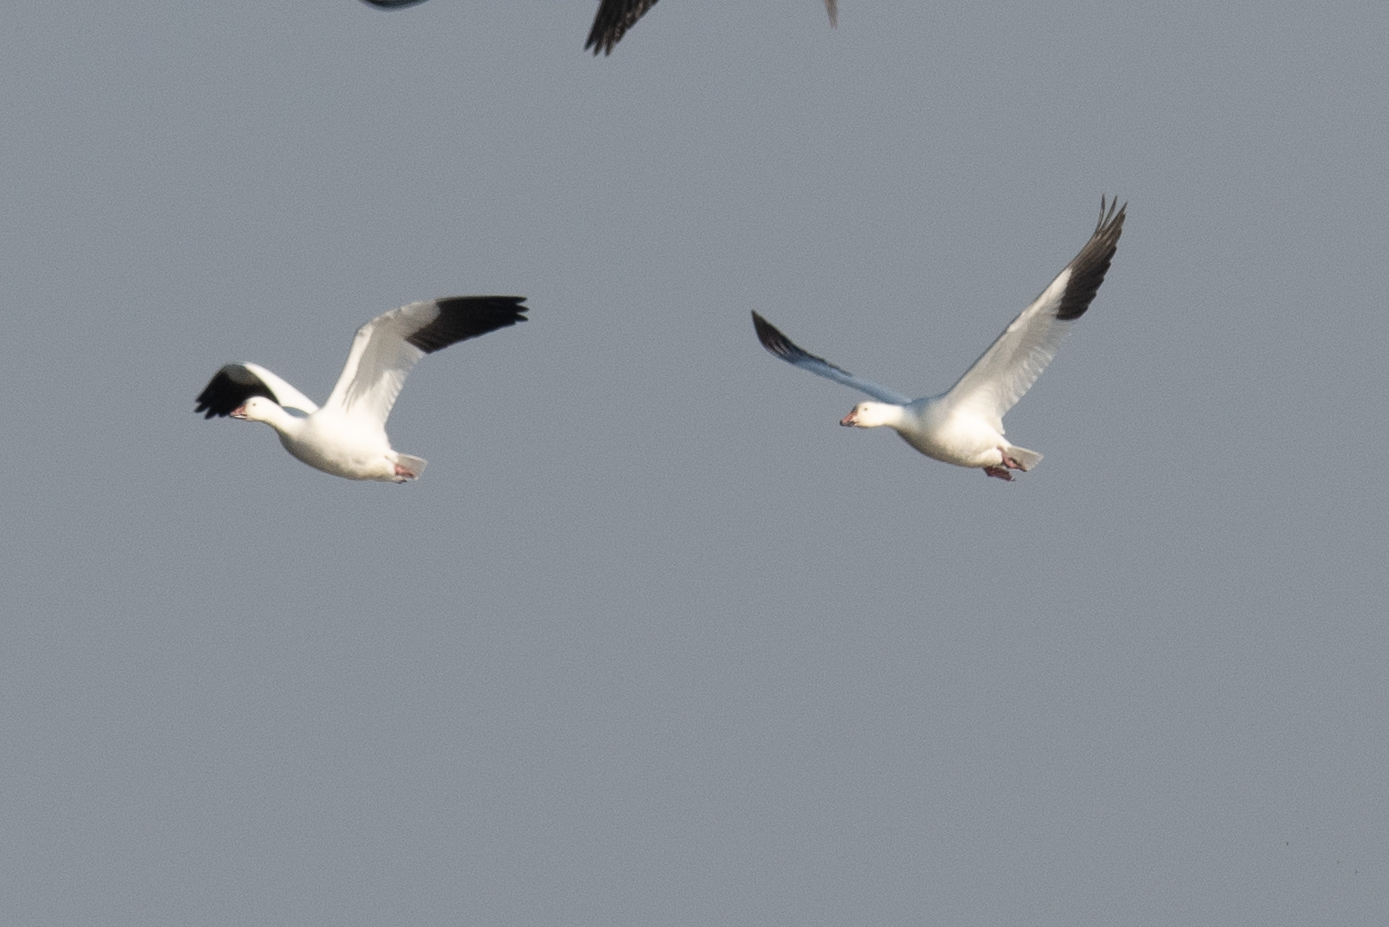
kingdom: Animalia
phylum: Chordata
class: Aves
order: Anseriformes
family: Anatidae
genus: Anser
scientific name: Anser caerulescens
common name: Snow goose
